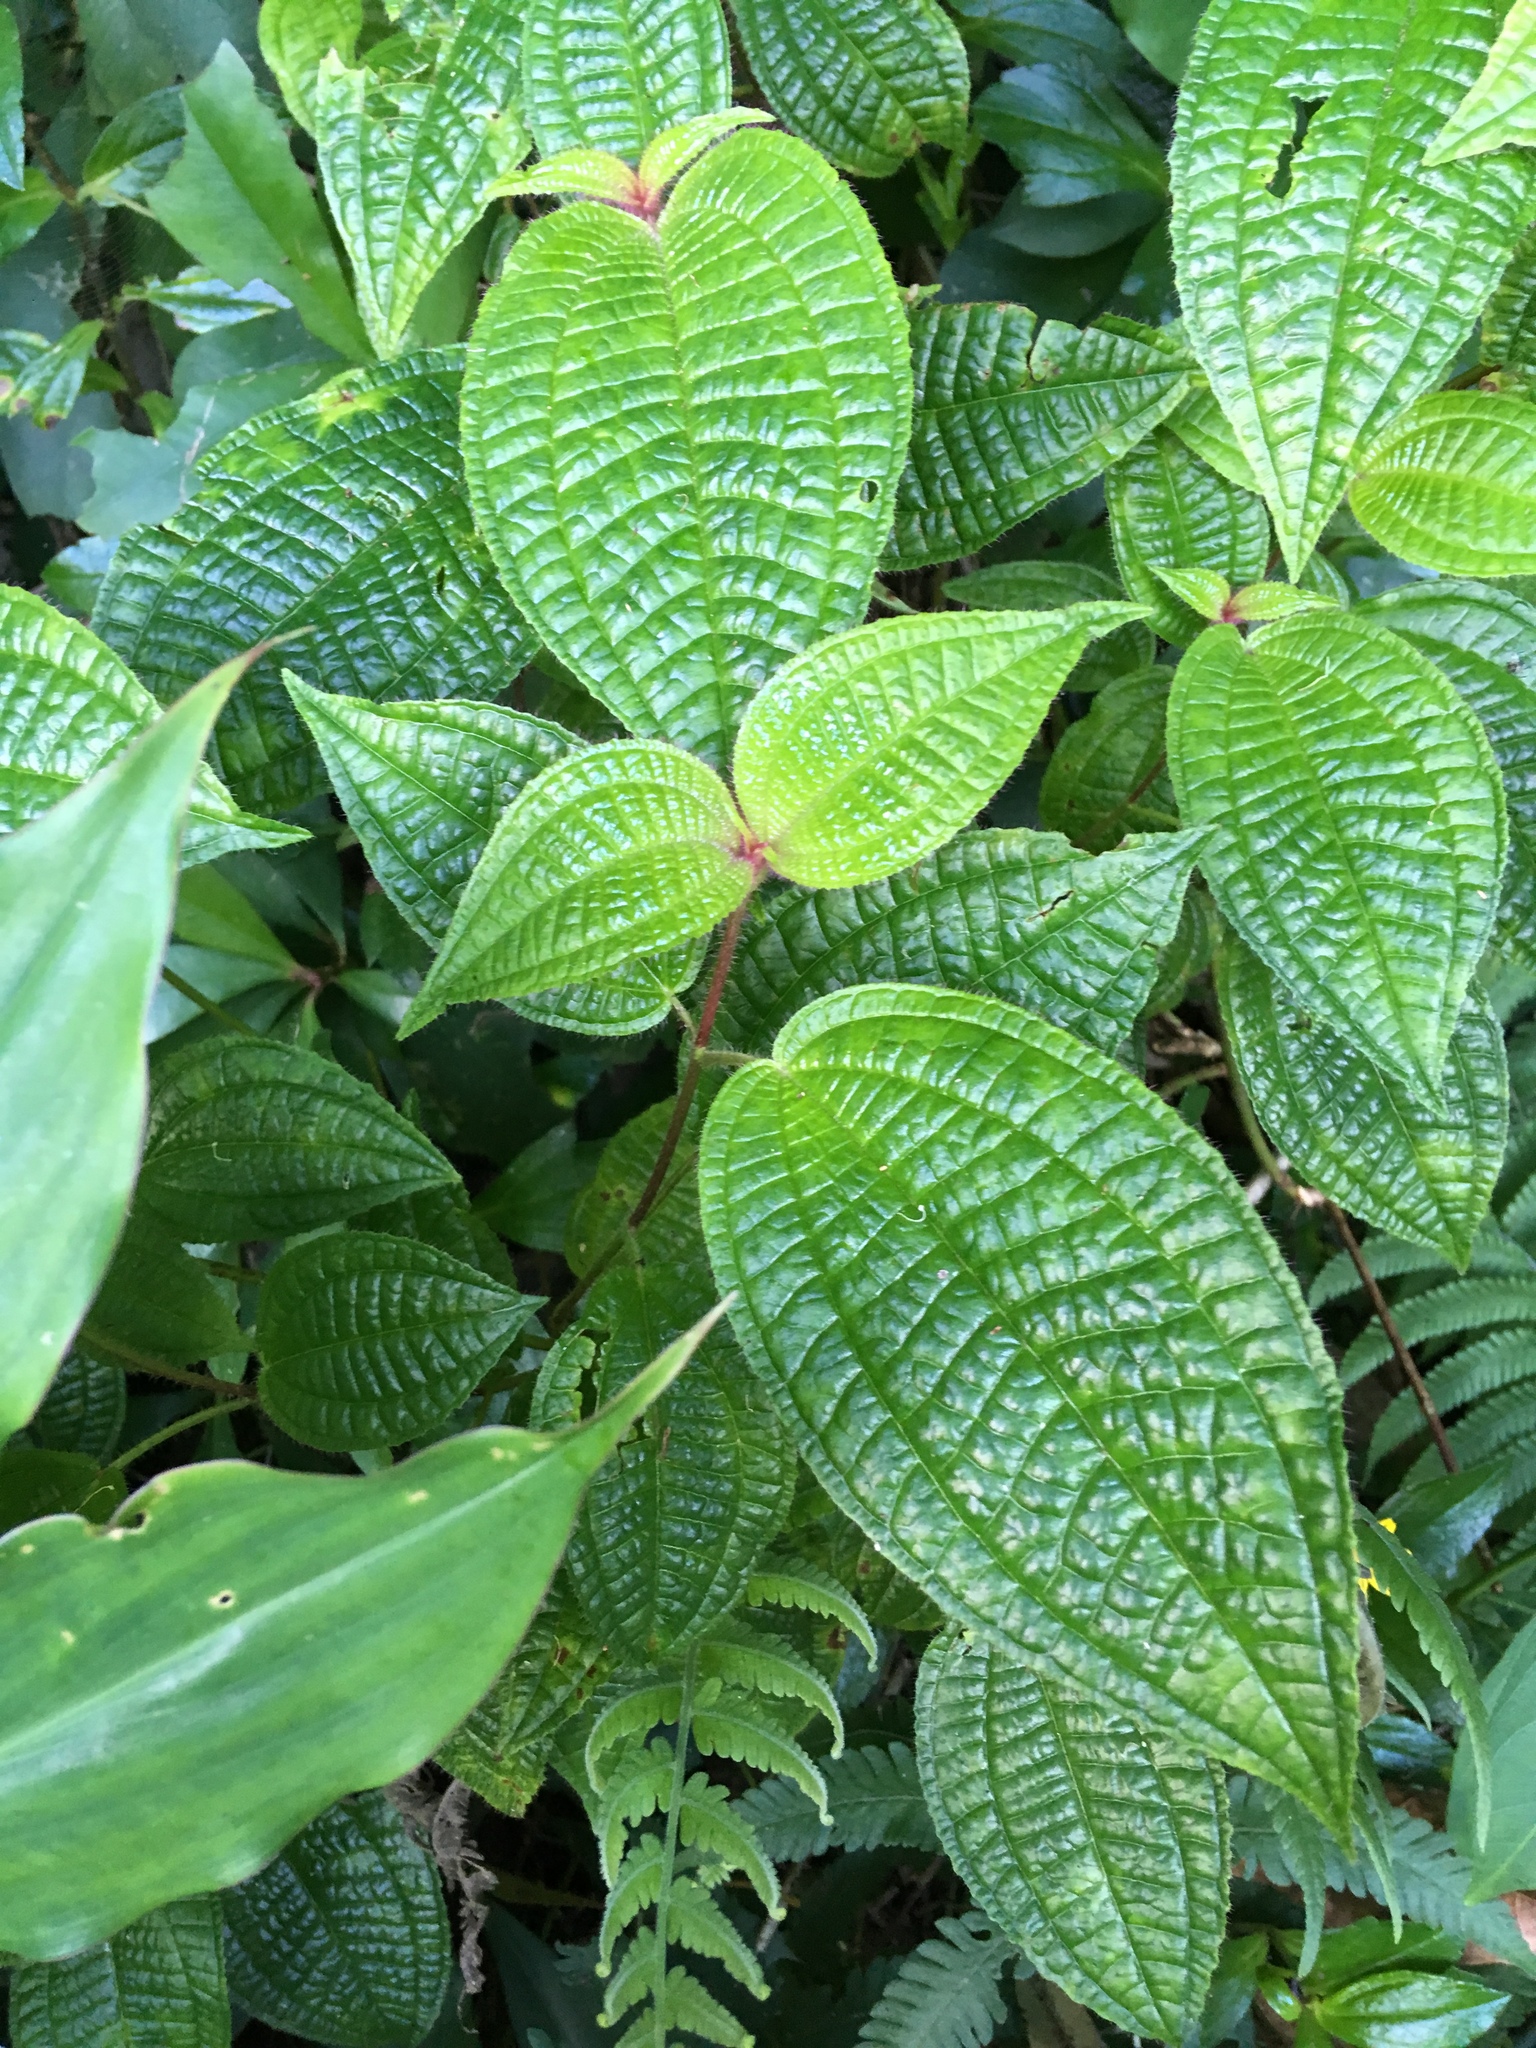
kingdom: Plantae
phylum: Tracheophyta
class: Magnoliopsida
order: Myrtales
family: Melastomataceae
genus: Miconia
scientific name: Miconia crenata
